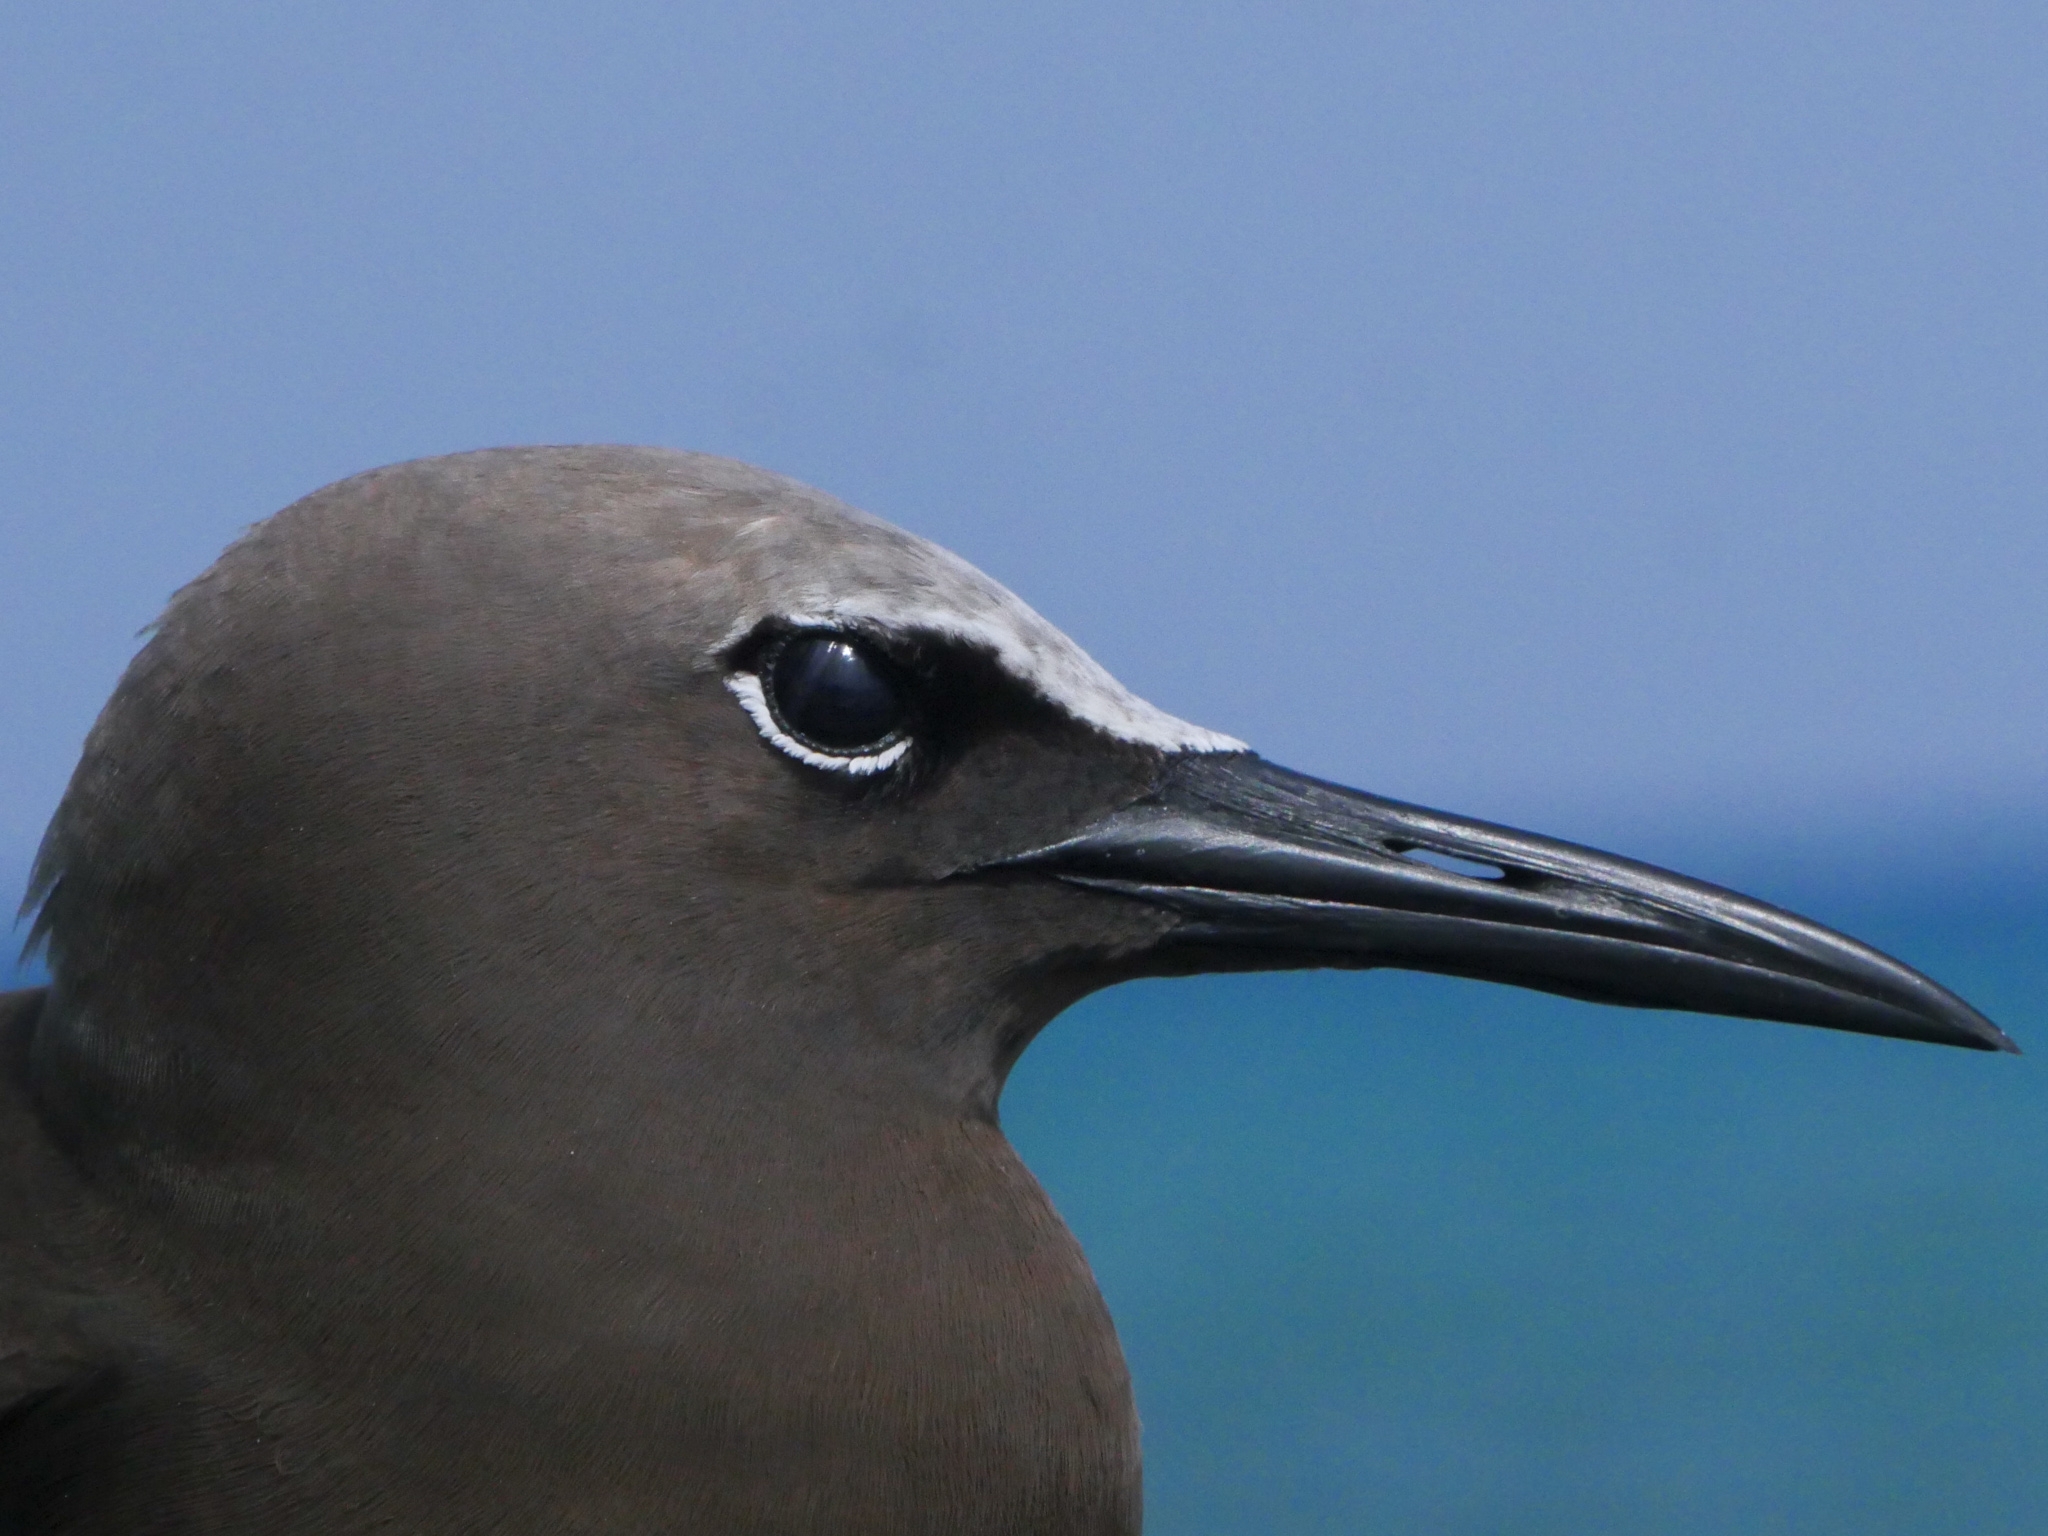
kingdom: Animalia
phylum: Chordata
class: Aves
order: Charadriiformes
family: Laridae
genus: Anous
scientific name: Anous stolidus
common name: Brown noddy
